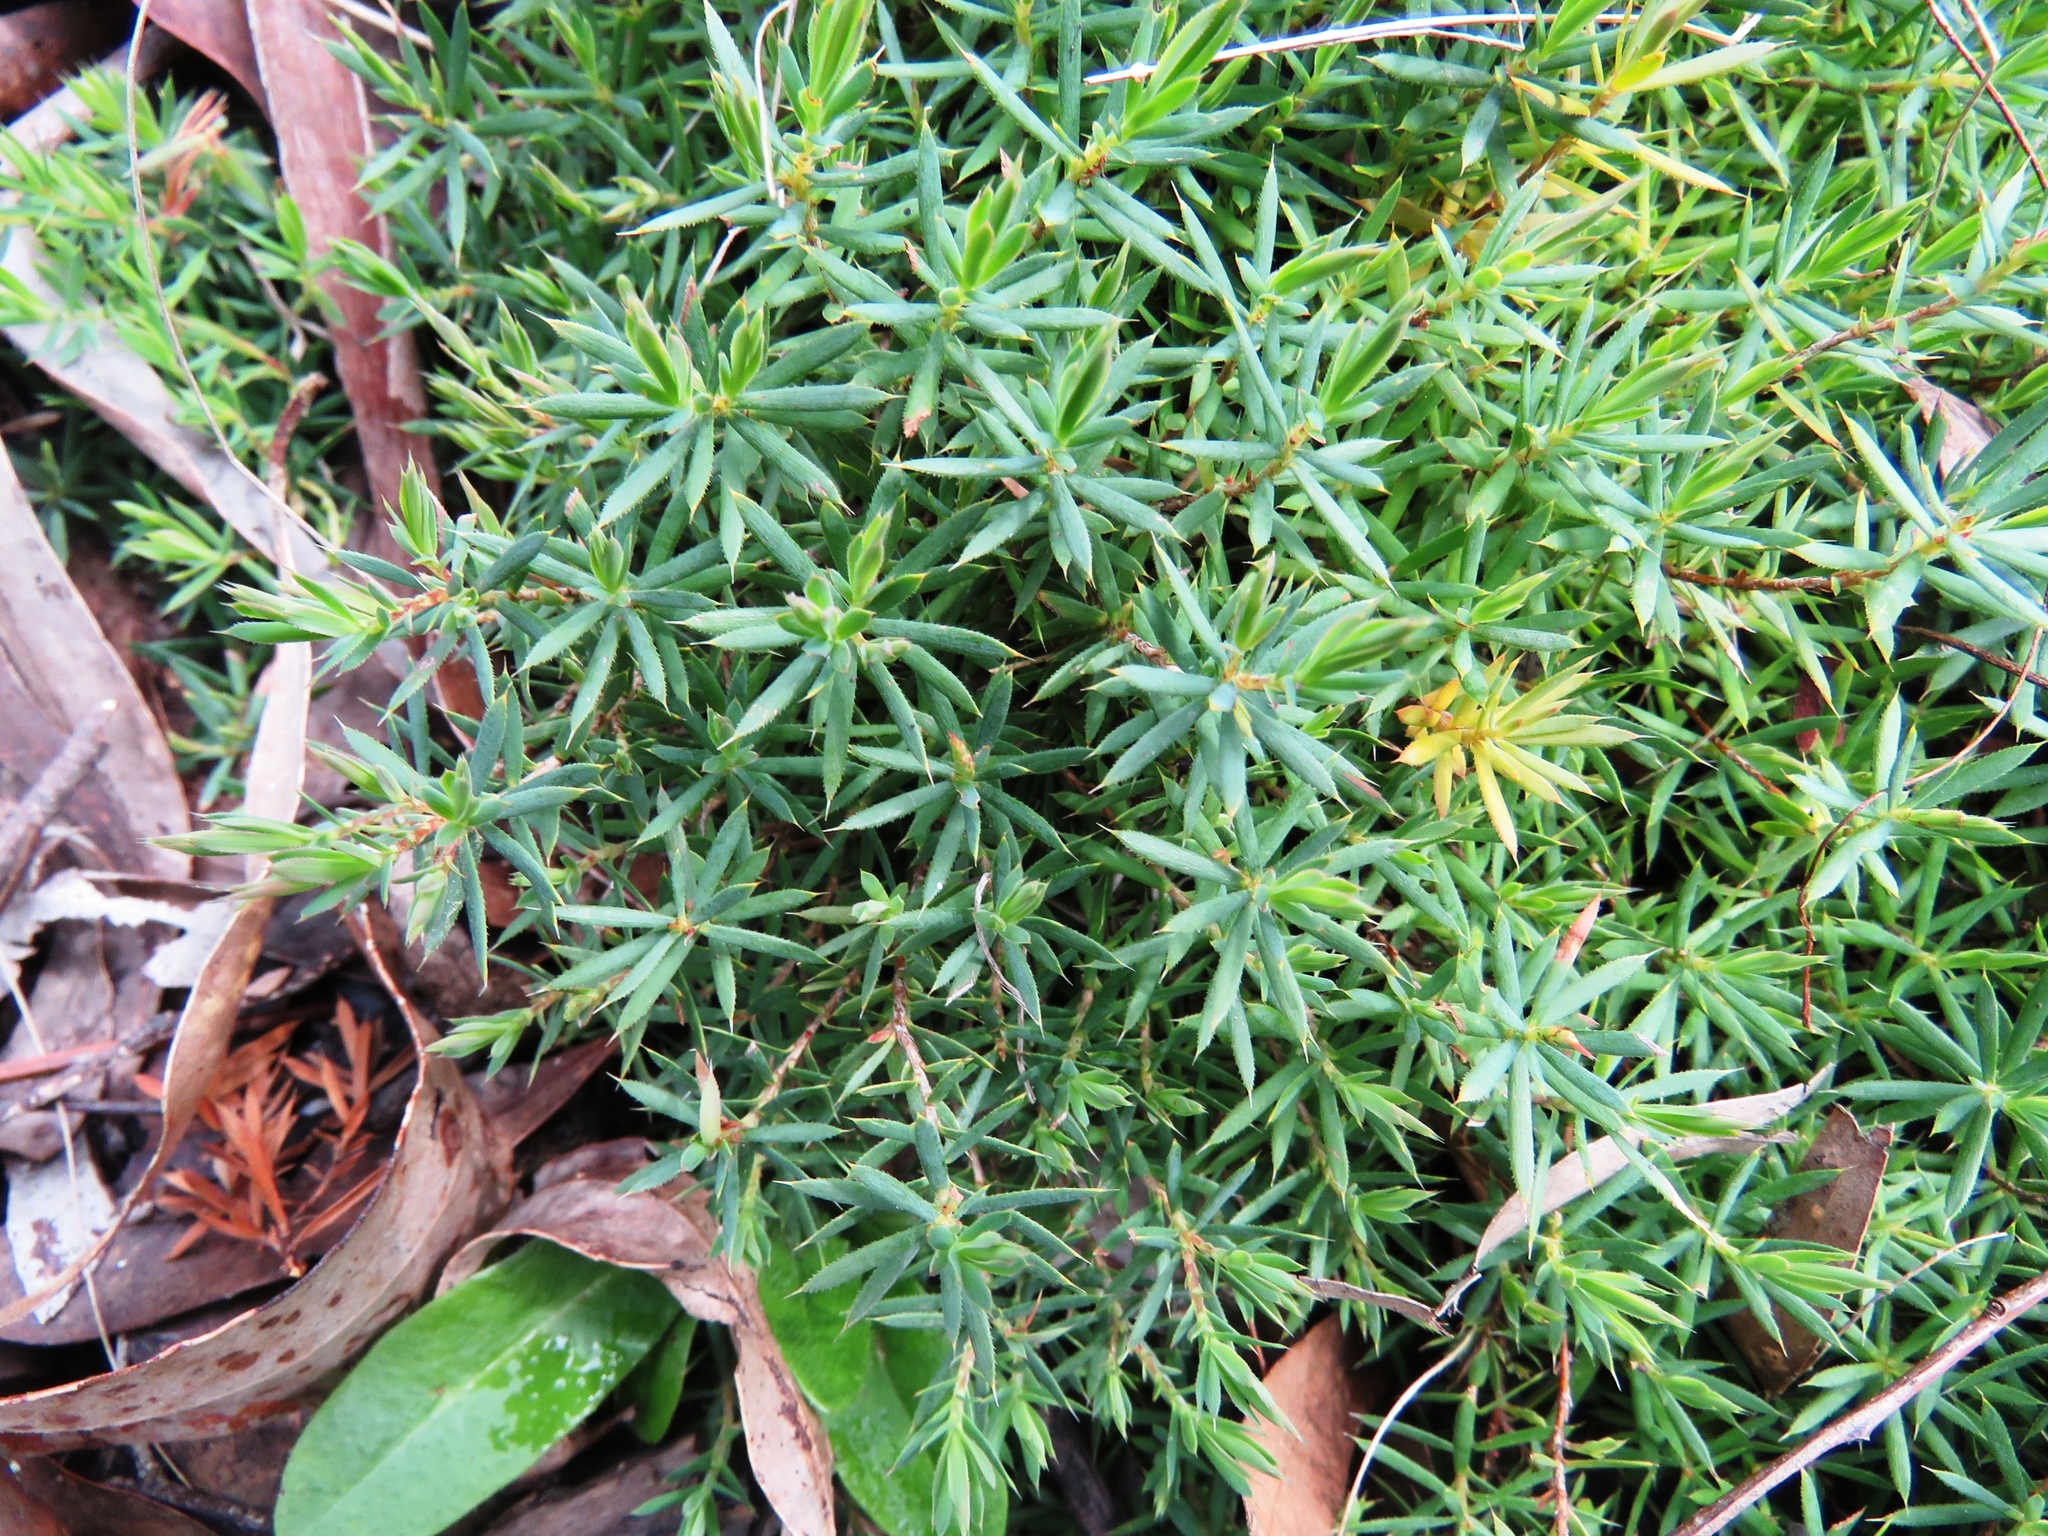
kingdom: Plantae
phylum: Tracheophyta
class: Magnoliopsida
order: Ericales
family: Ericaceae
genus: Styphelia
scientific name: Styphelia humifusa
